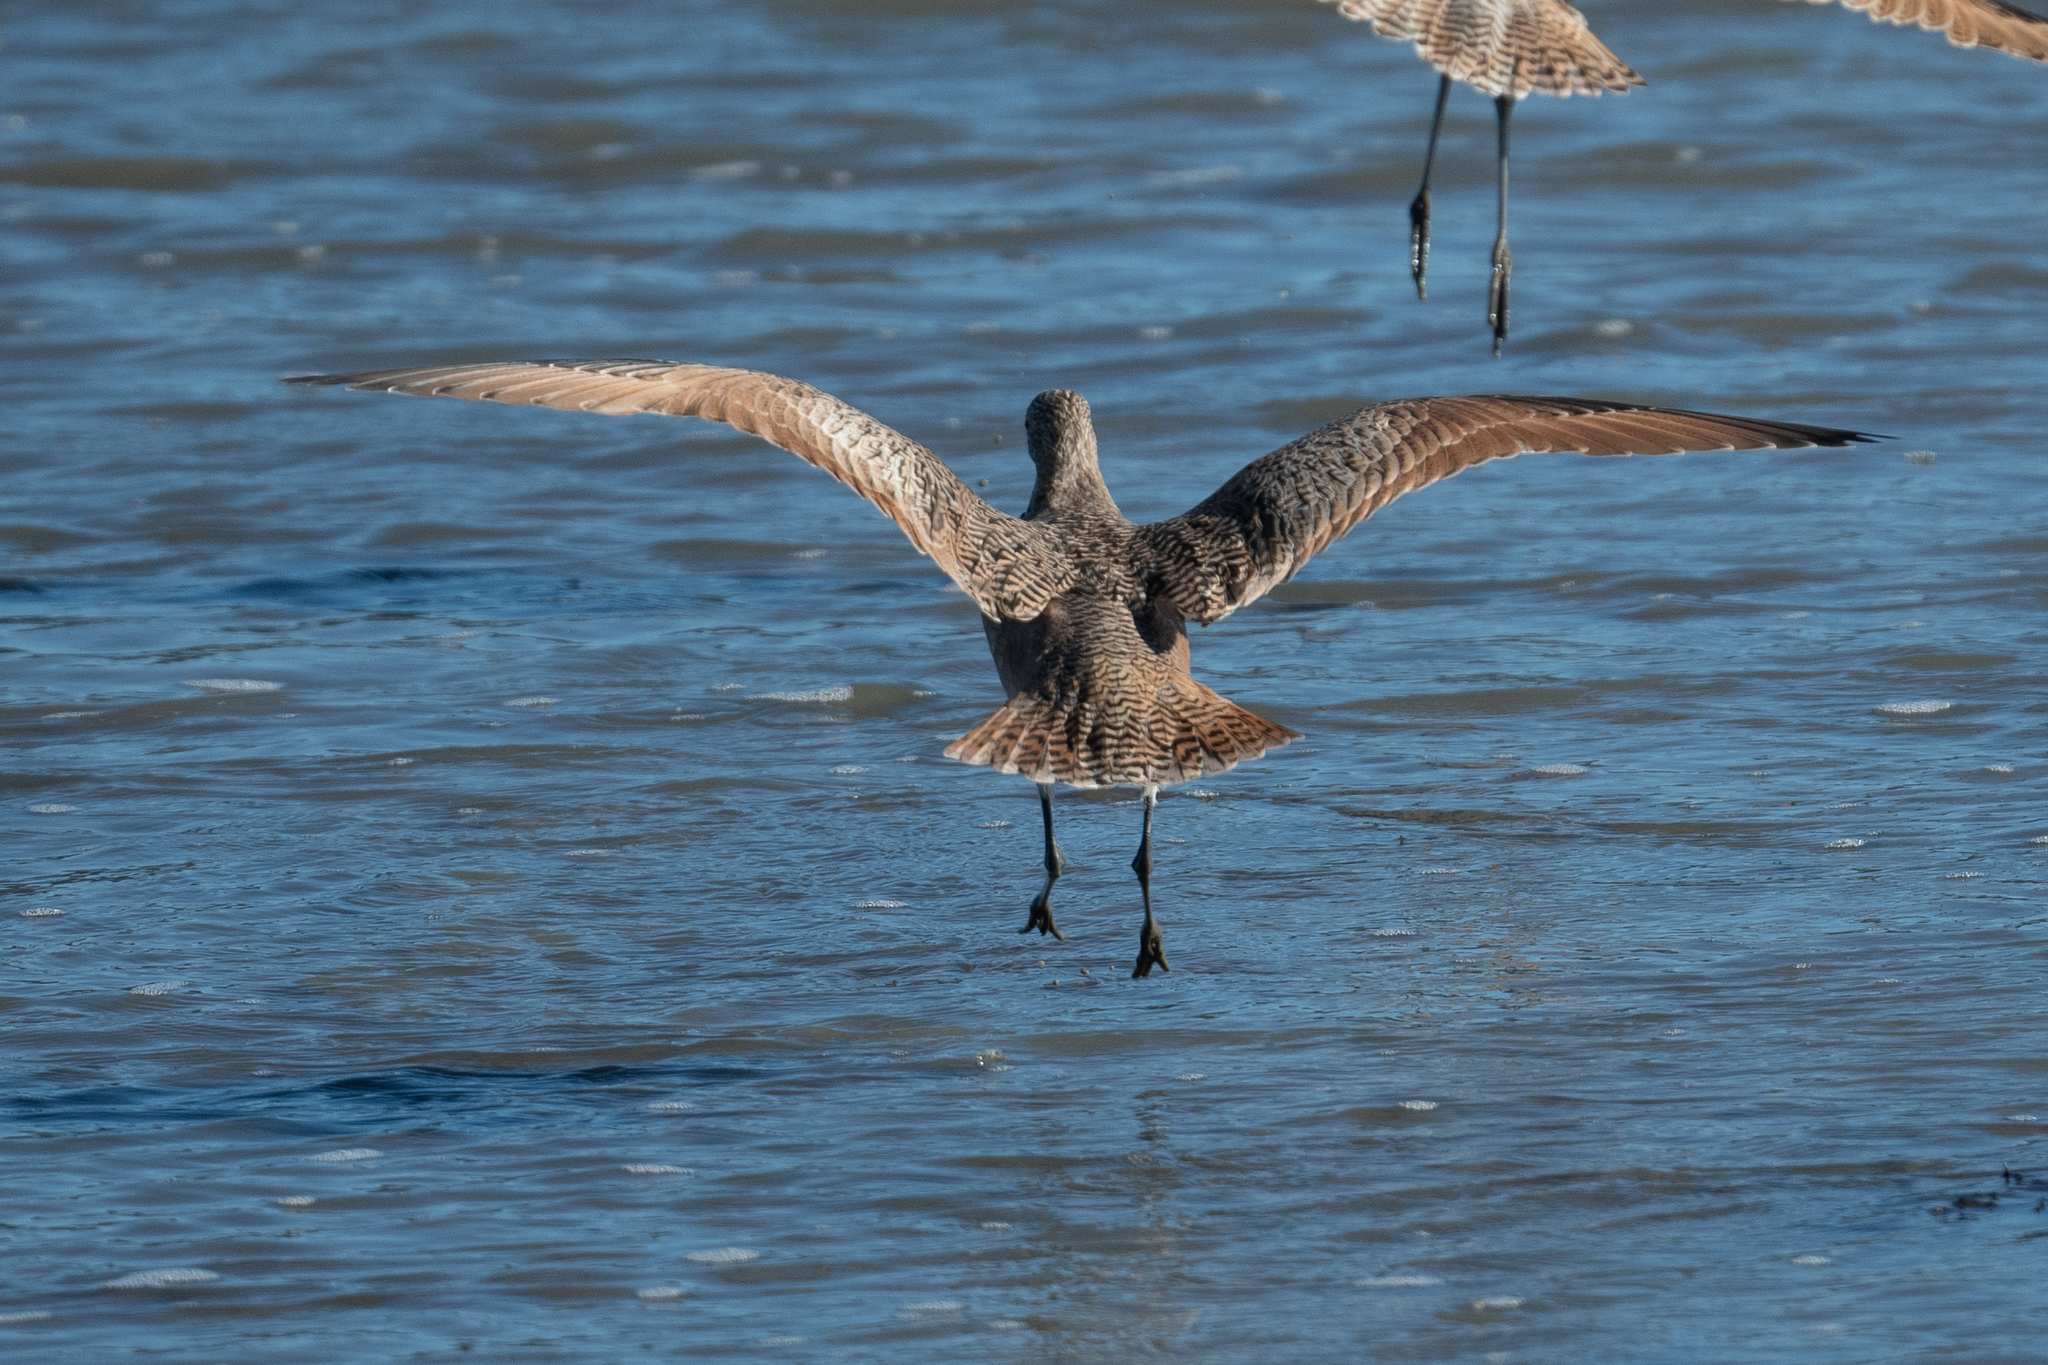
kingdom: Animalia
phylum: Chordata
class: Aves
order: Charadriiformes
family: Scolopacidae
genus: Limosa
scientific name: Limosa fedoa
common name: Marbled godwit
